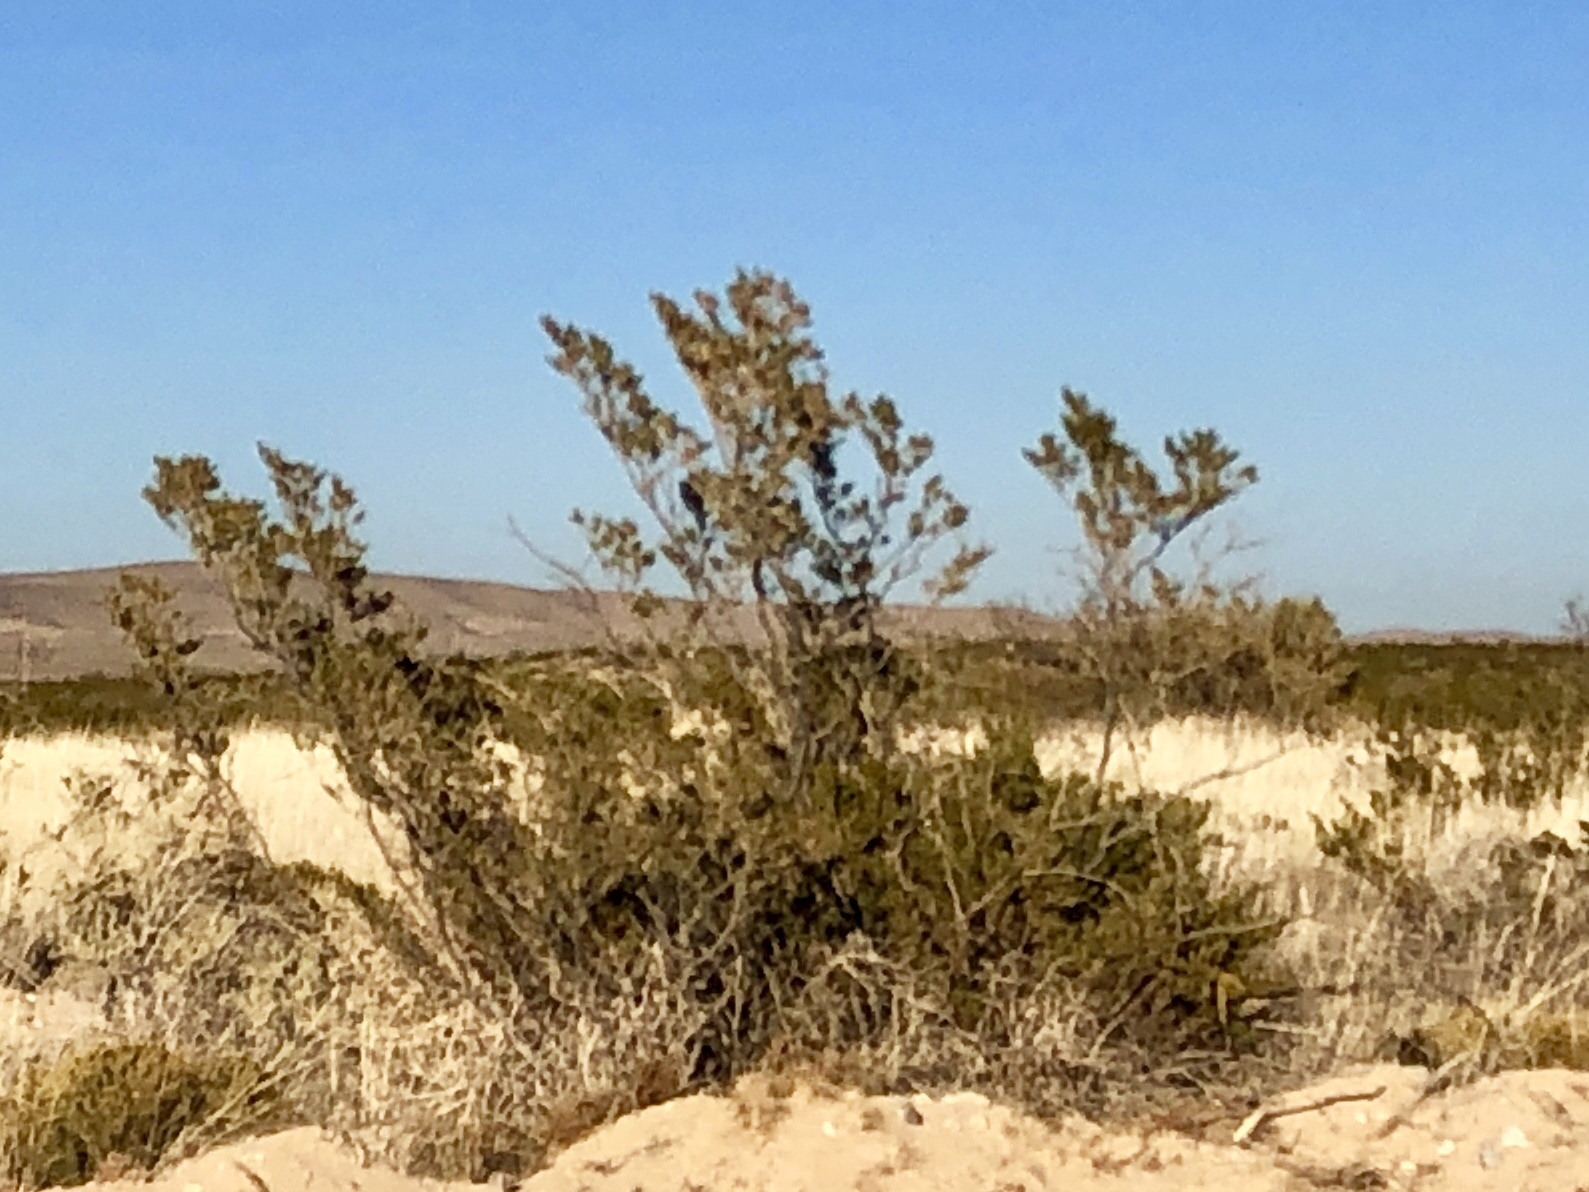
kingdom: Plantae
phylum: Tracheophyta
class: Magnoliopsida
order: Zygophyllales
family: Zygophyllaceae
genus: Larrea
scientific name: Larrea tridentata
